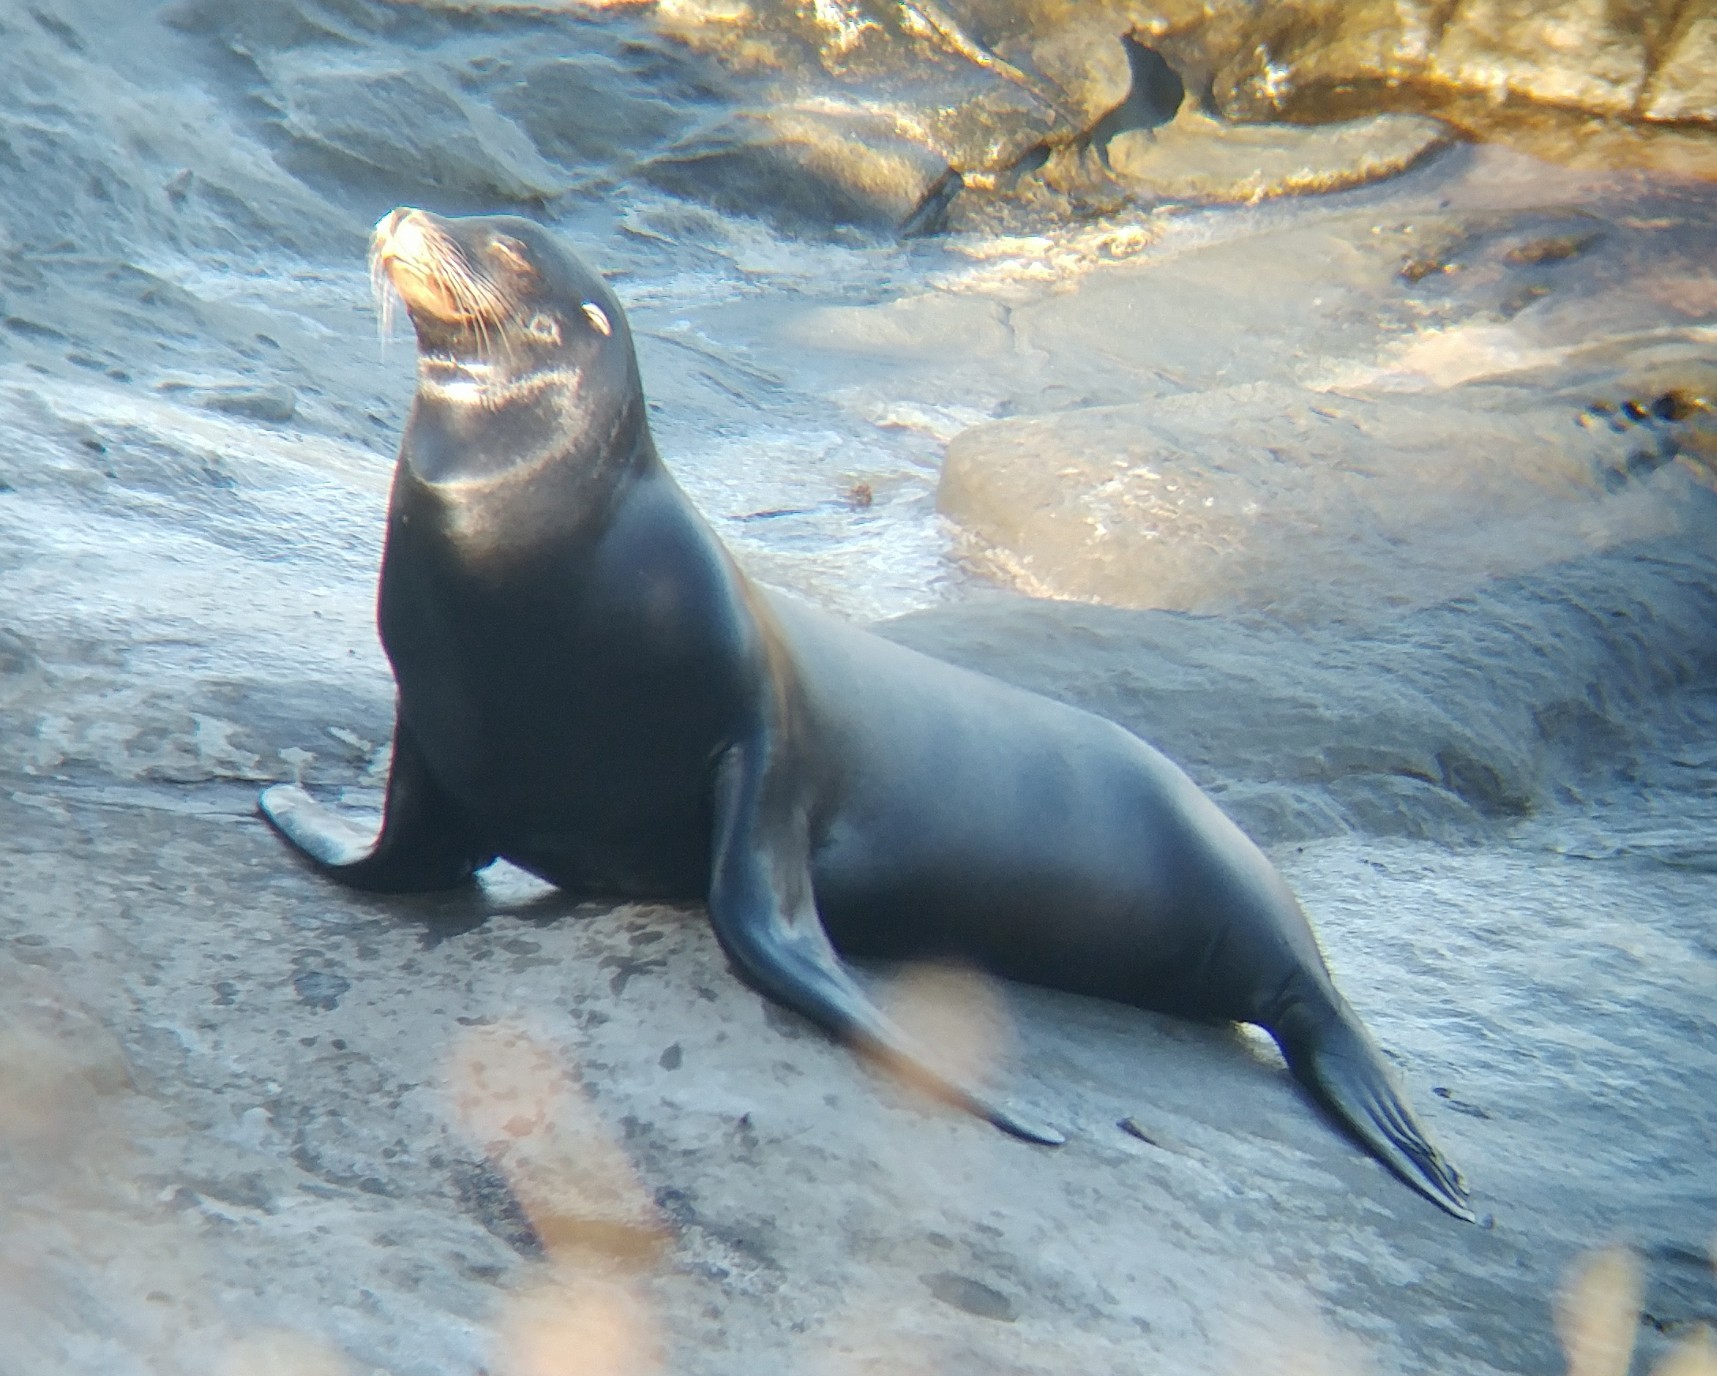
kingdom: Animalia
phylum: Chordata
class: Mammalia
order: Carnivora
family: Otariidae
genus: Zalophus
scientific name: Zalophus californianus
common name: California sea lion
